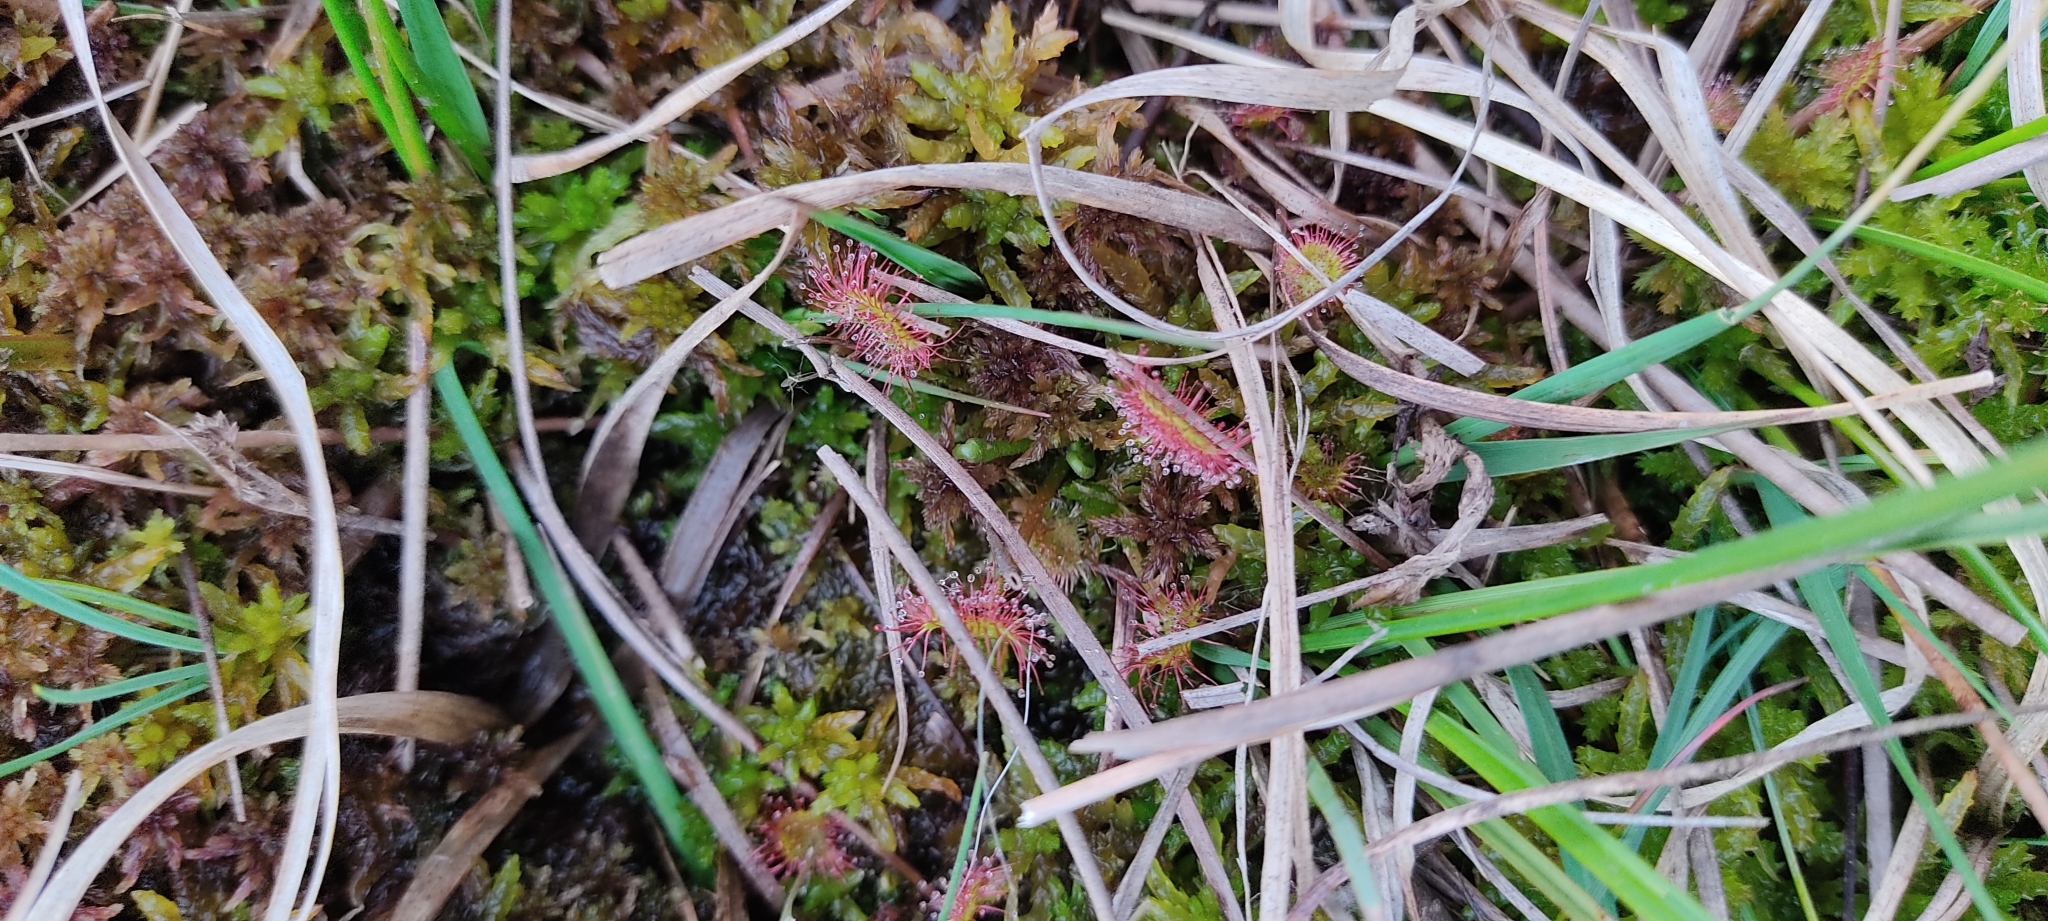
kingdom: Plantae
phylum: Tracheophyta
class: Magnoliopsida
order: Caryophyllales
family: Droseraceae
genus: Drosera
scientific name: Drosera rotundifolia
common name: Round-leaved sundew
